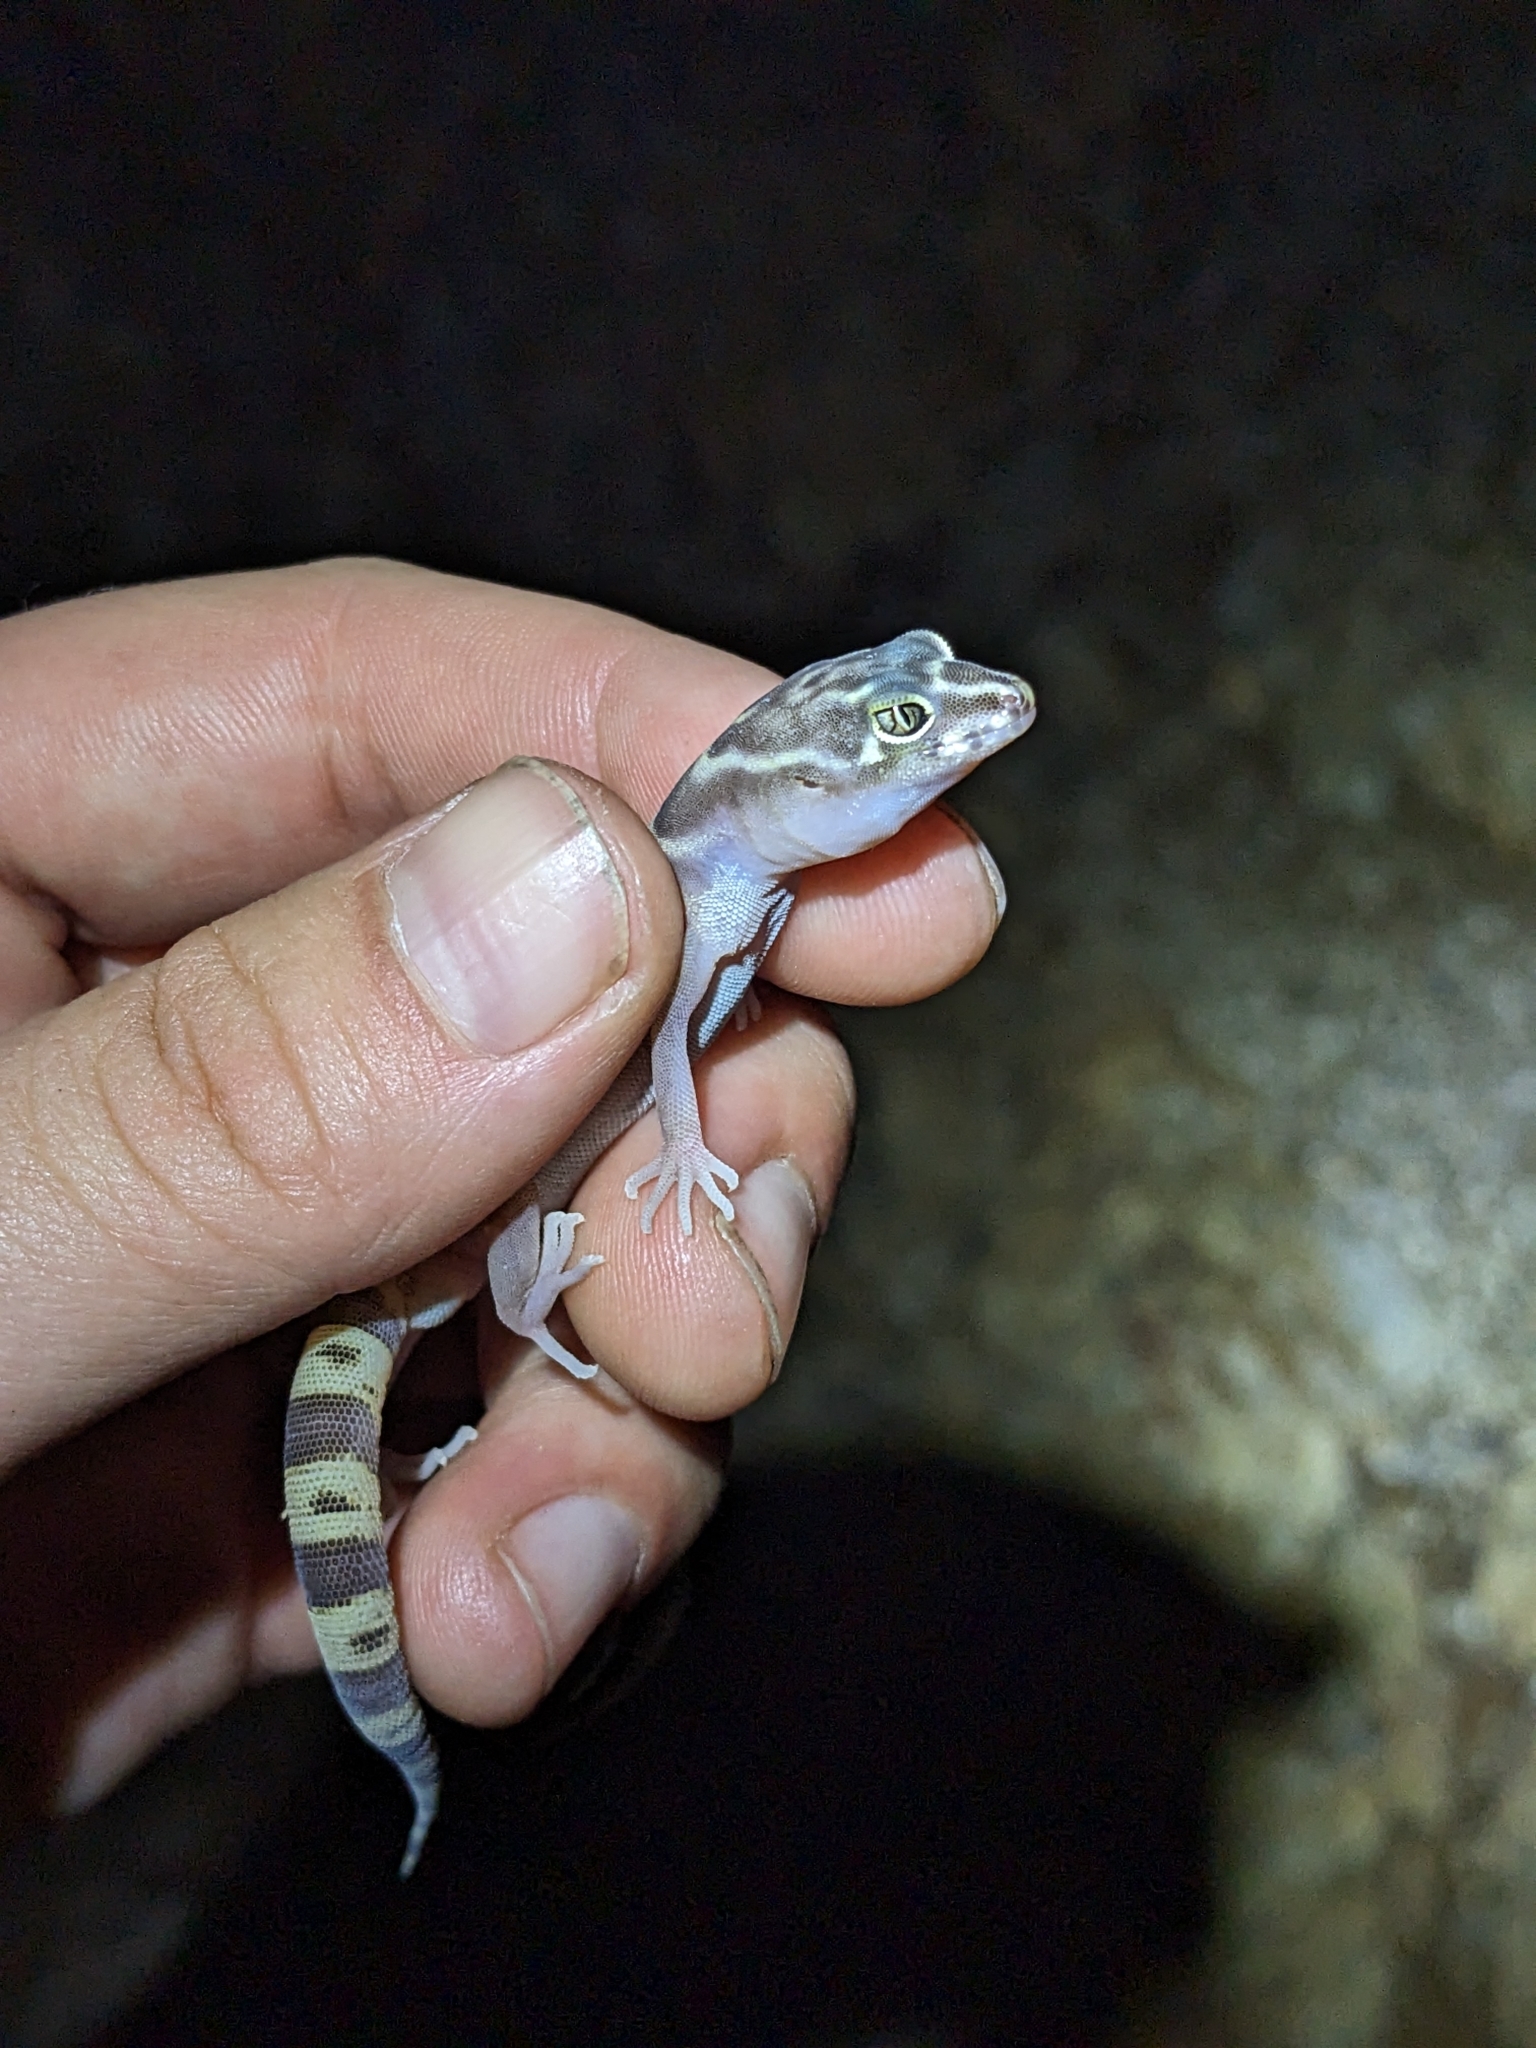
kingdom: Animalia
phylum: Chordata
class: Squamata
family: Eublepharidae
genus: Coleonyx
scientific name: Coleonyx variegatus
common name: Western banded gecko
